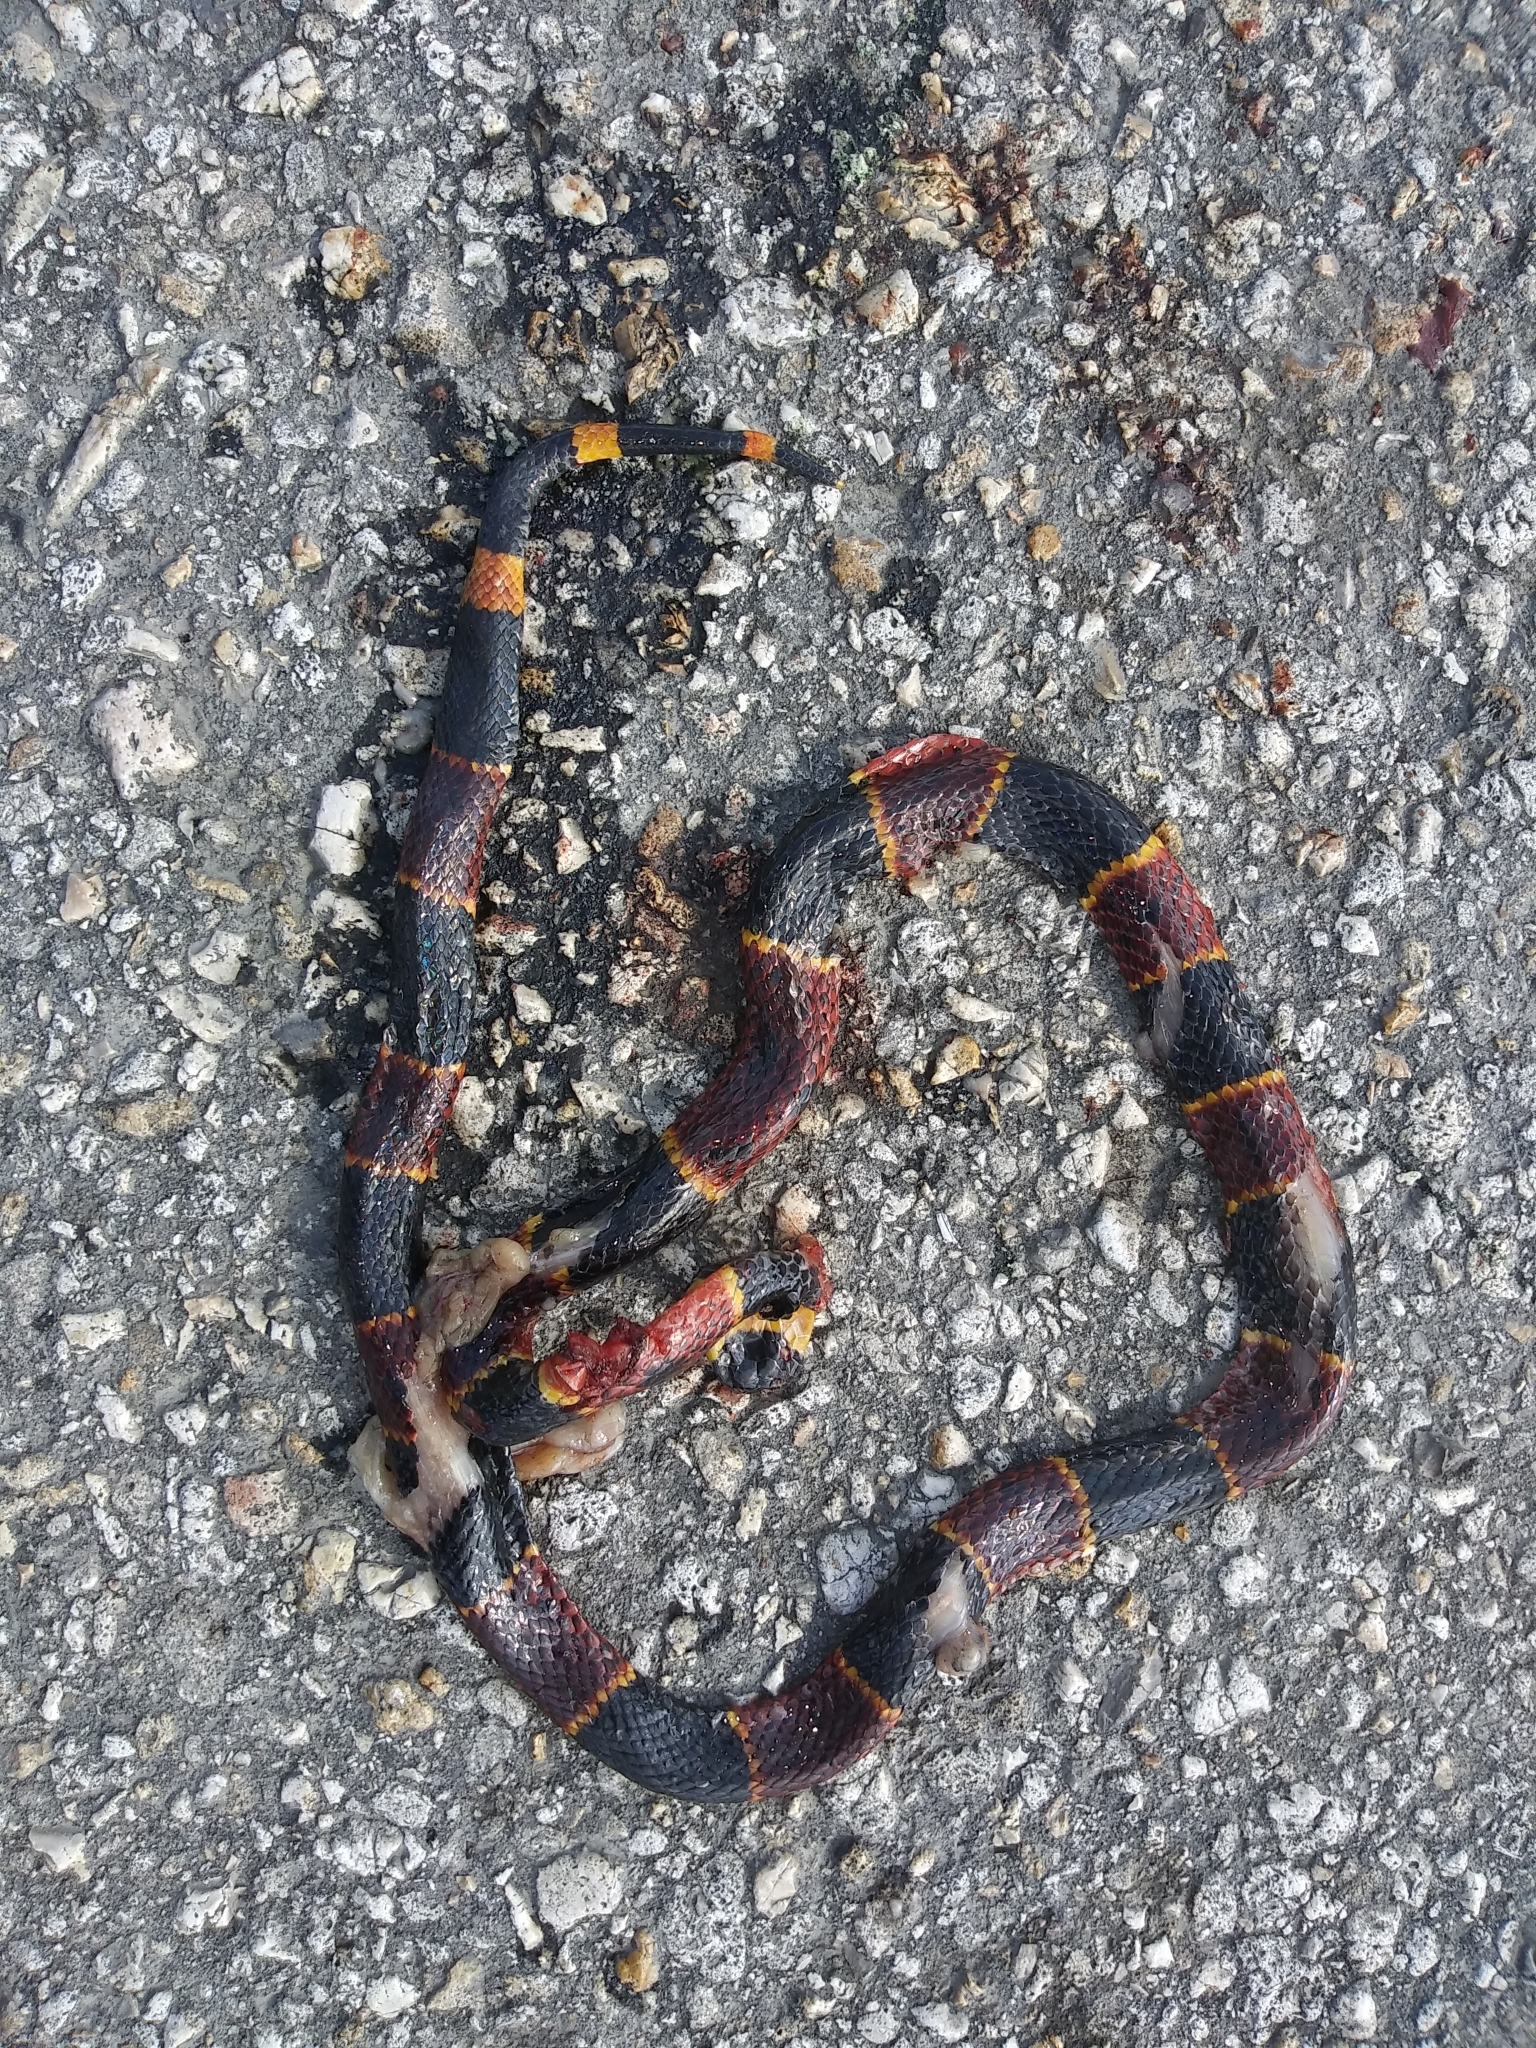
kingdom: Animalia
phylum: Chordata
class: Squamata
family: Elapidae
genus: Micrurus
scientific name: Micrurus fulvius
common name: Eastern coral snake
